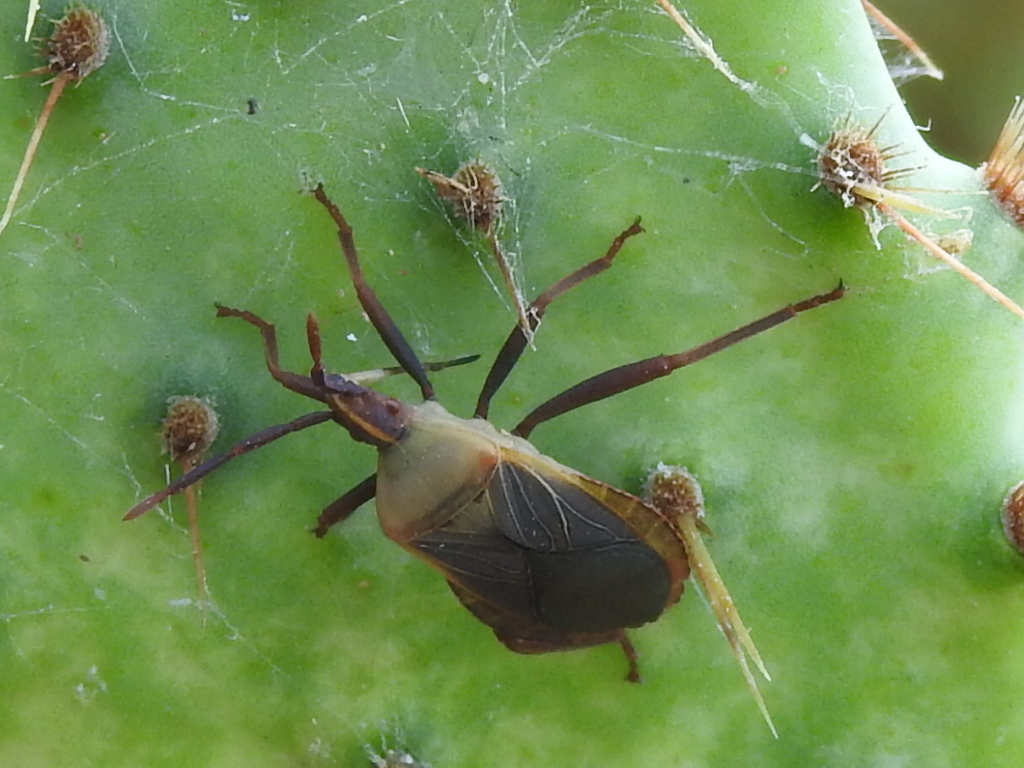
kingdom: Animalia
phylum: Arthropoda
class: Insecta
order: Hemiptera
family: Coreidae
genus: Chelinidea
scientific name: Chelinidea vittiger
